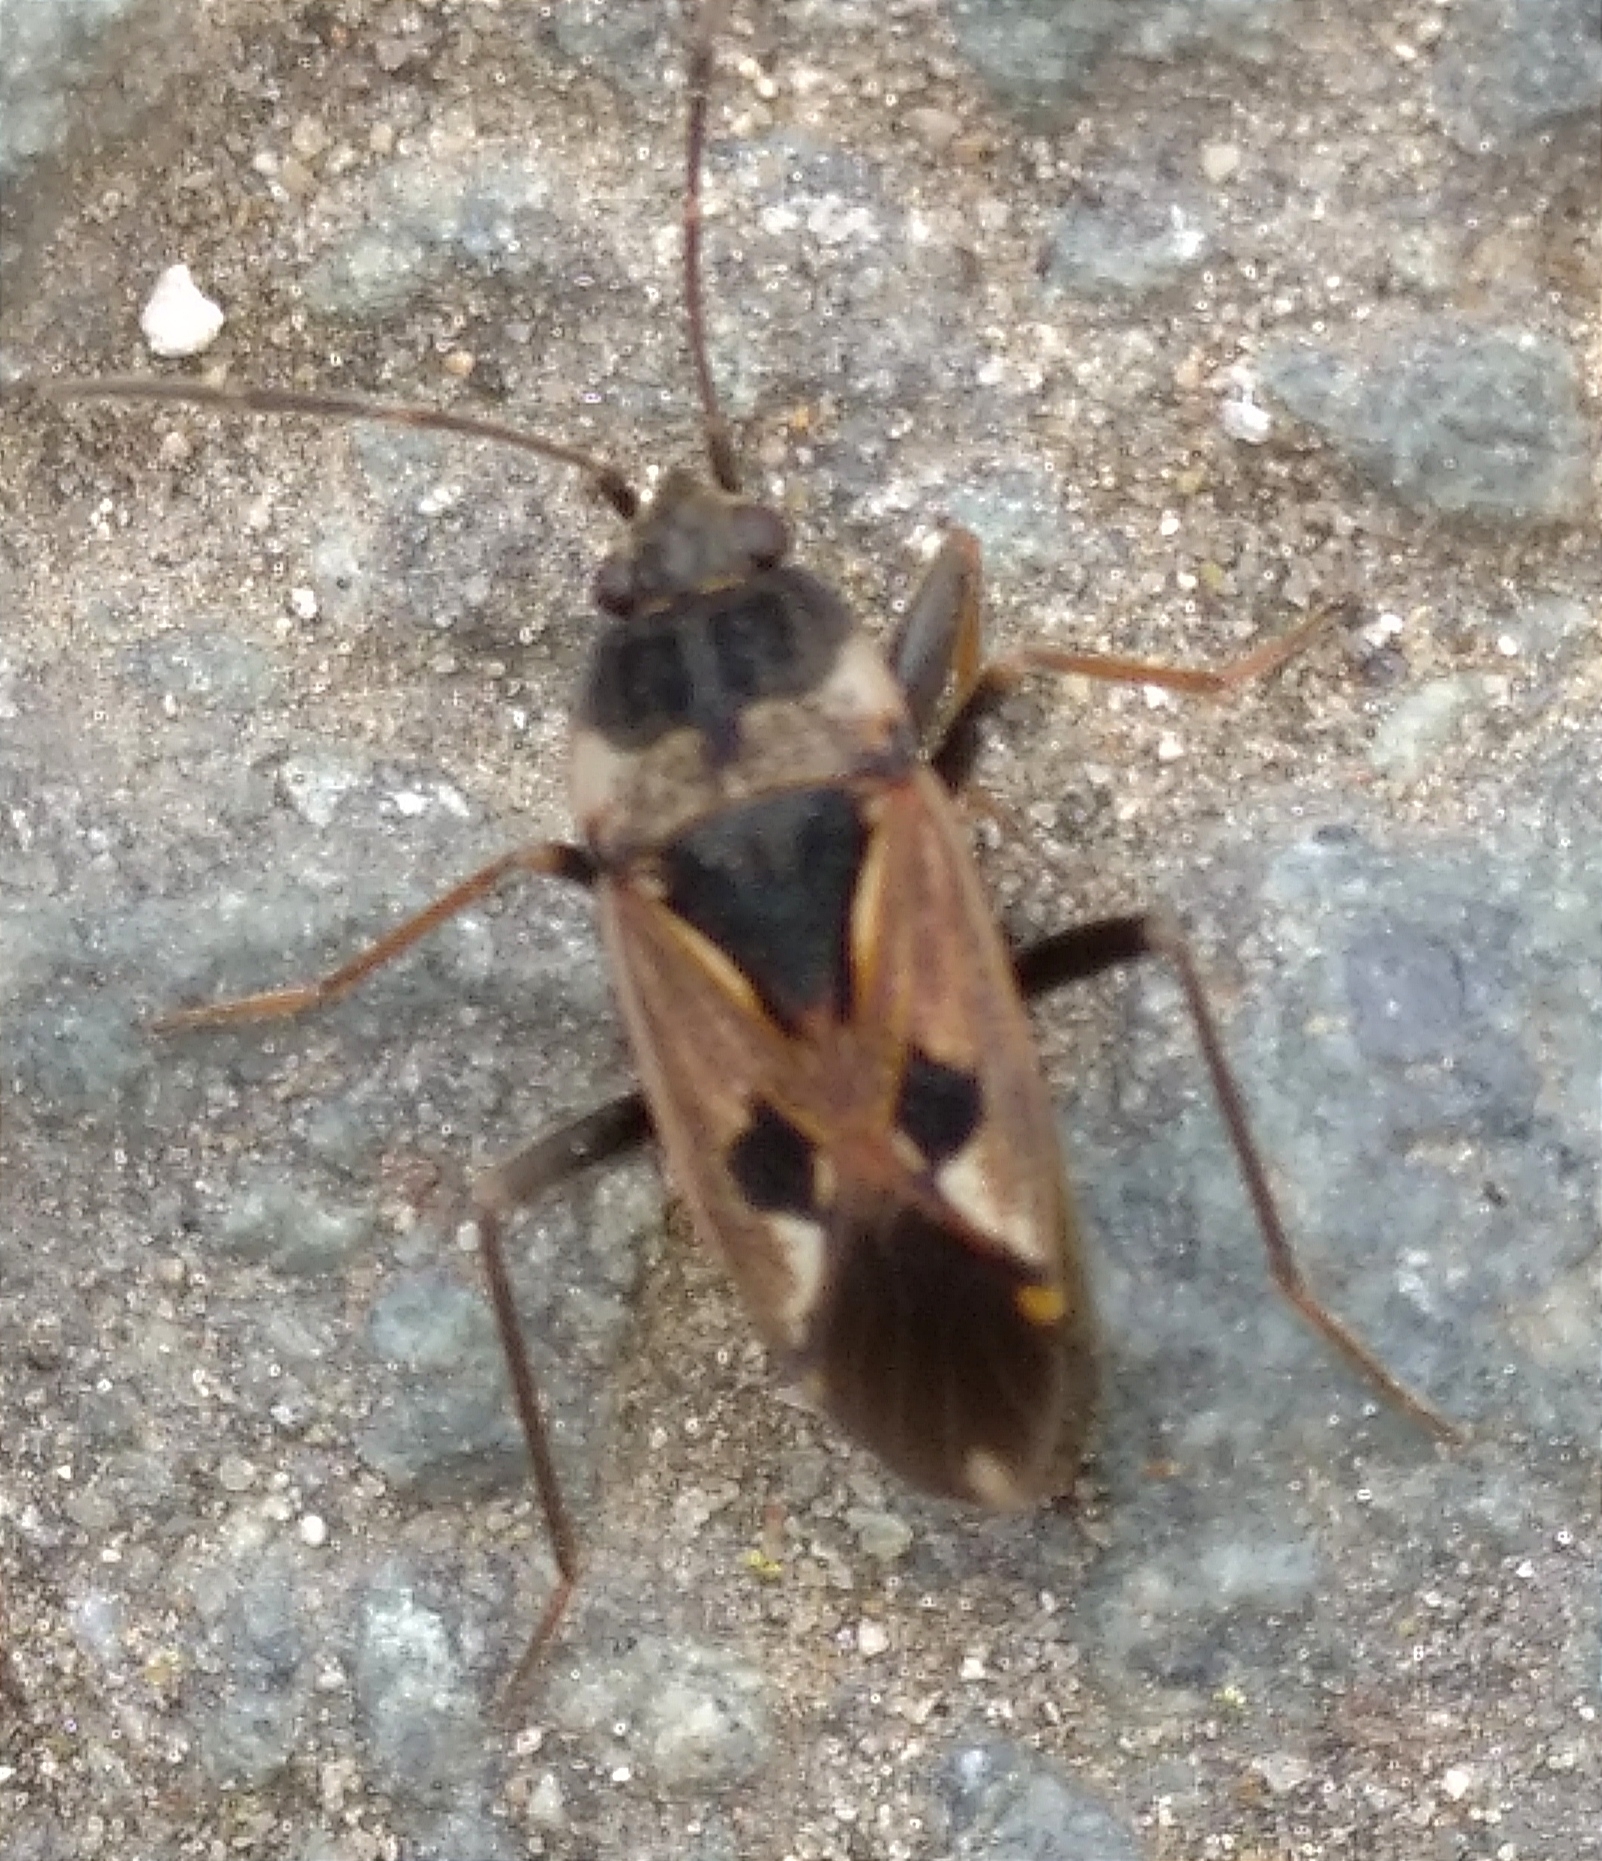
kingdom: Animalia
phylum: Arthropoda
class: Insecta
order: Hemiptera
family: Rhyparochromidae
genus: Rhyparochromus
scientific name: Rhyparochromus vulgaris
